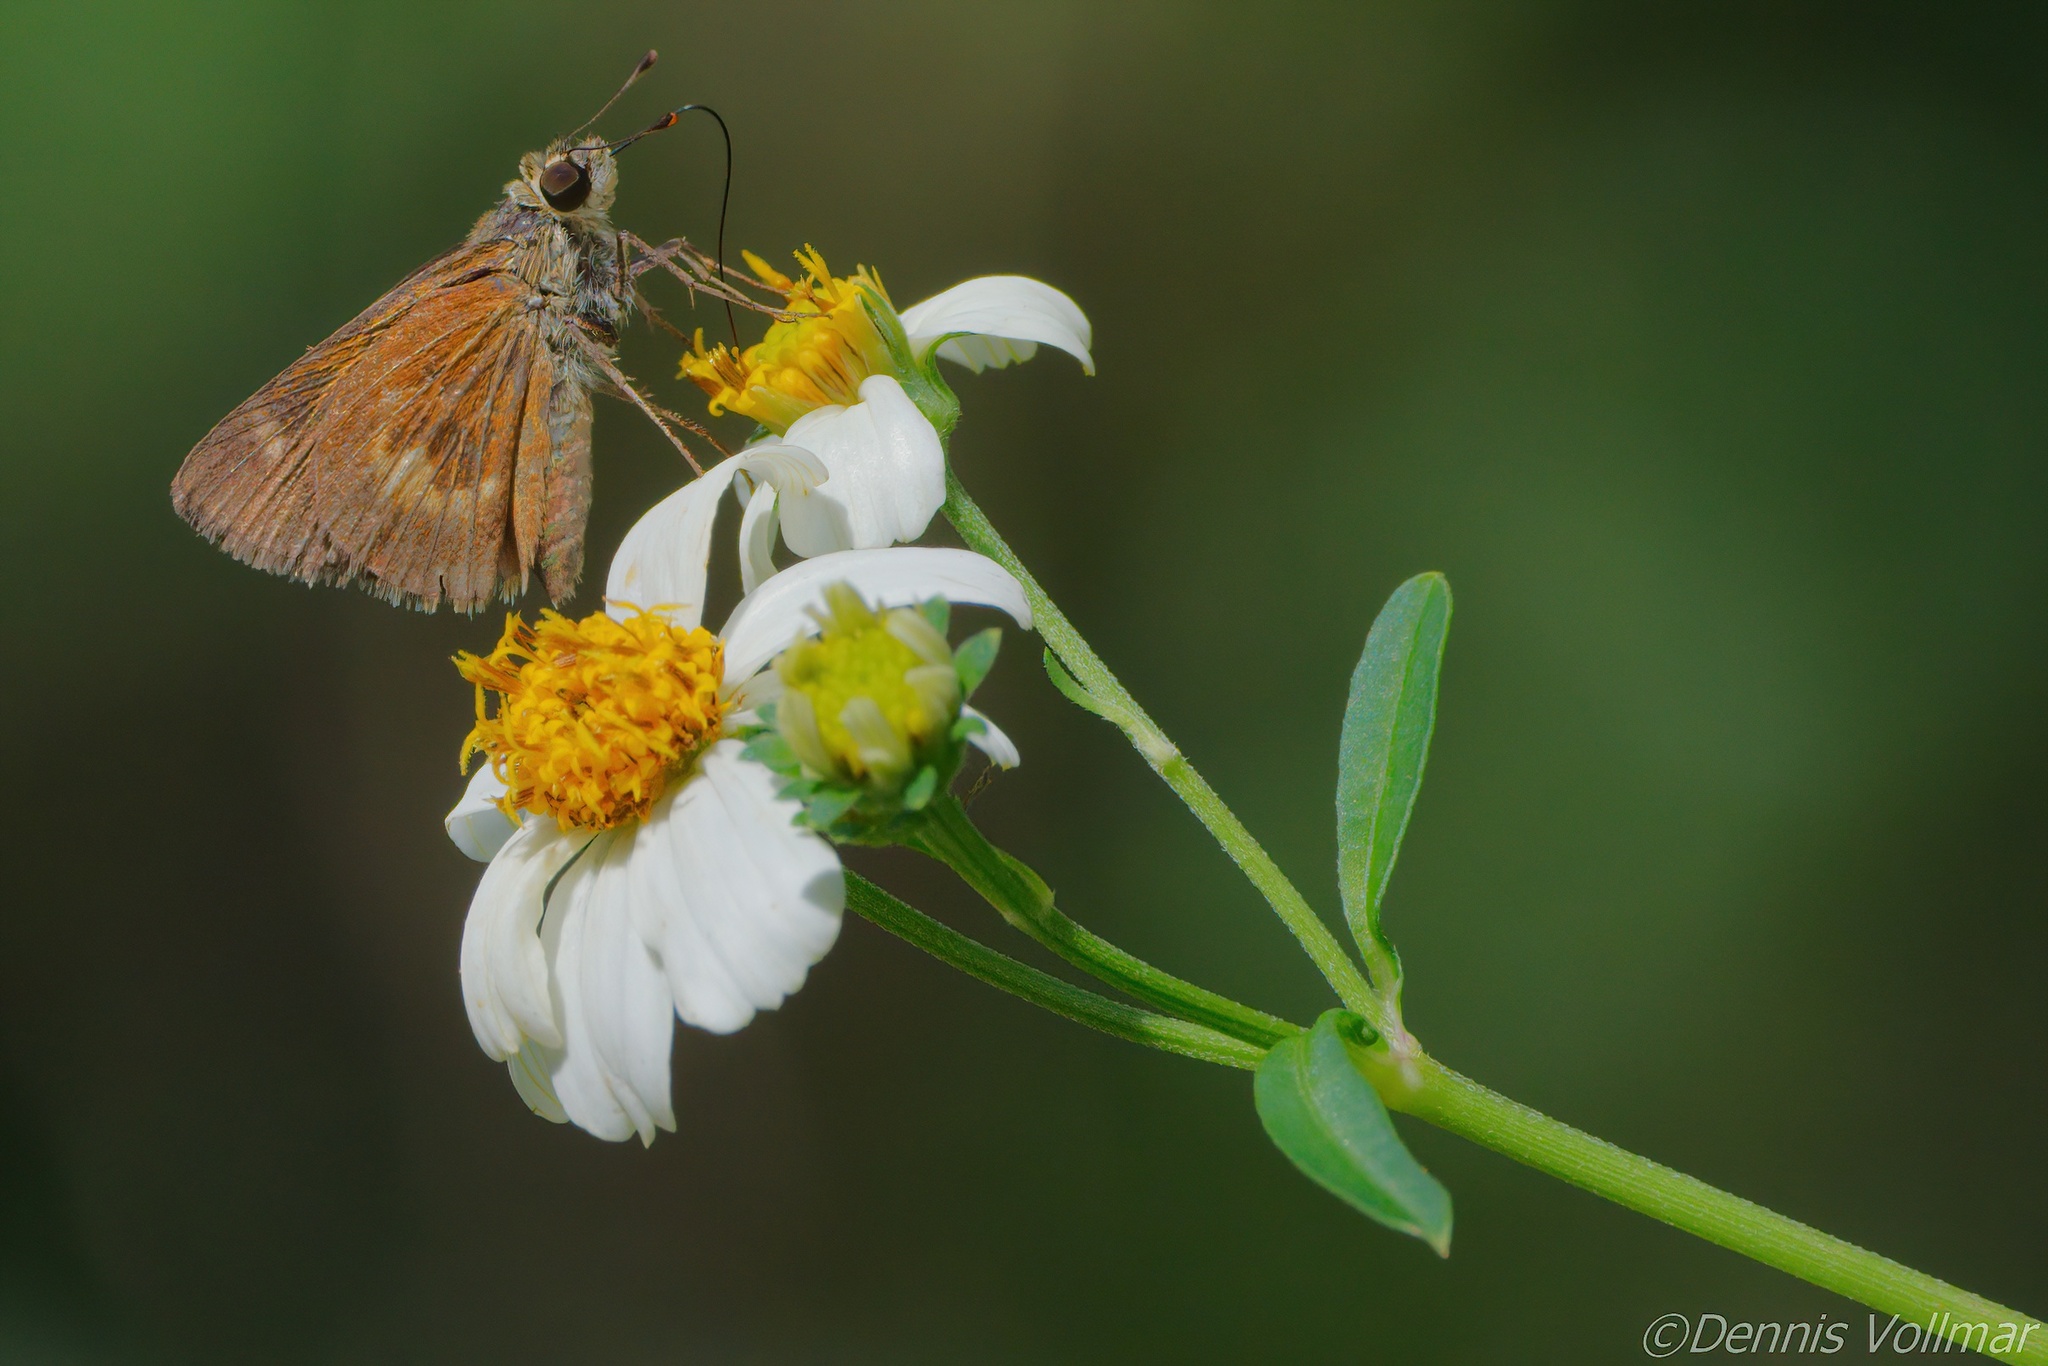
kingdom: Animalia
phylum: Arthropoda
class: Insecta
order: Lepidoptera
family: Hesperiidae
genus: Polites
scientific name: Polites otho
